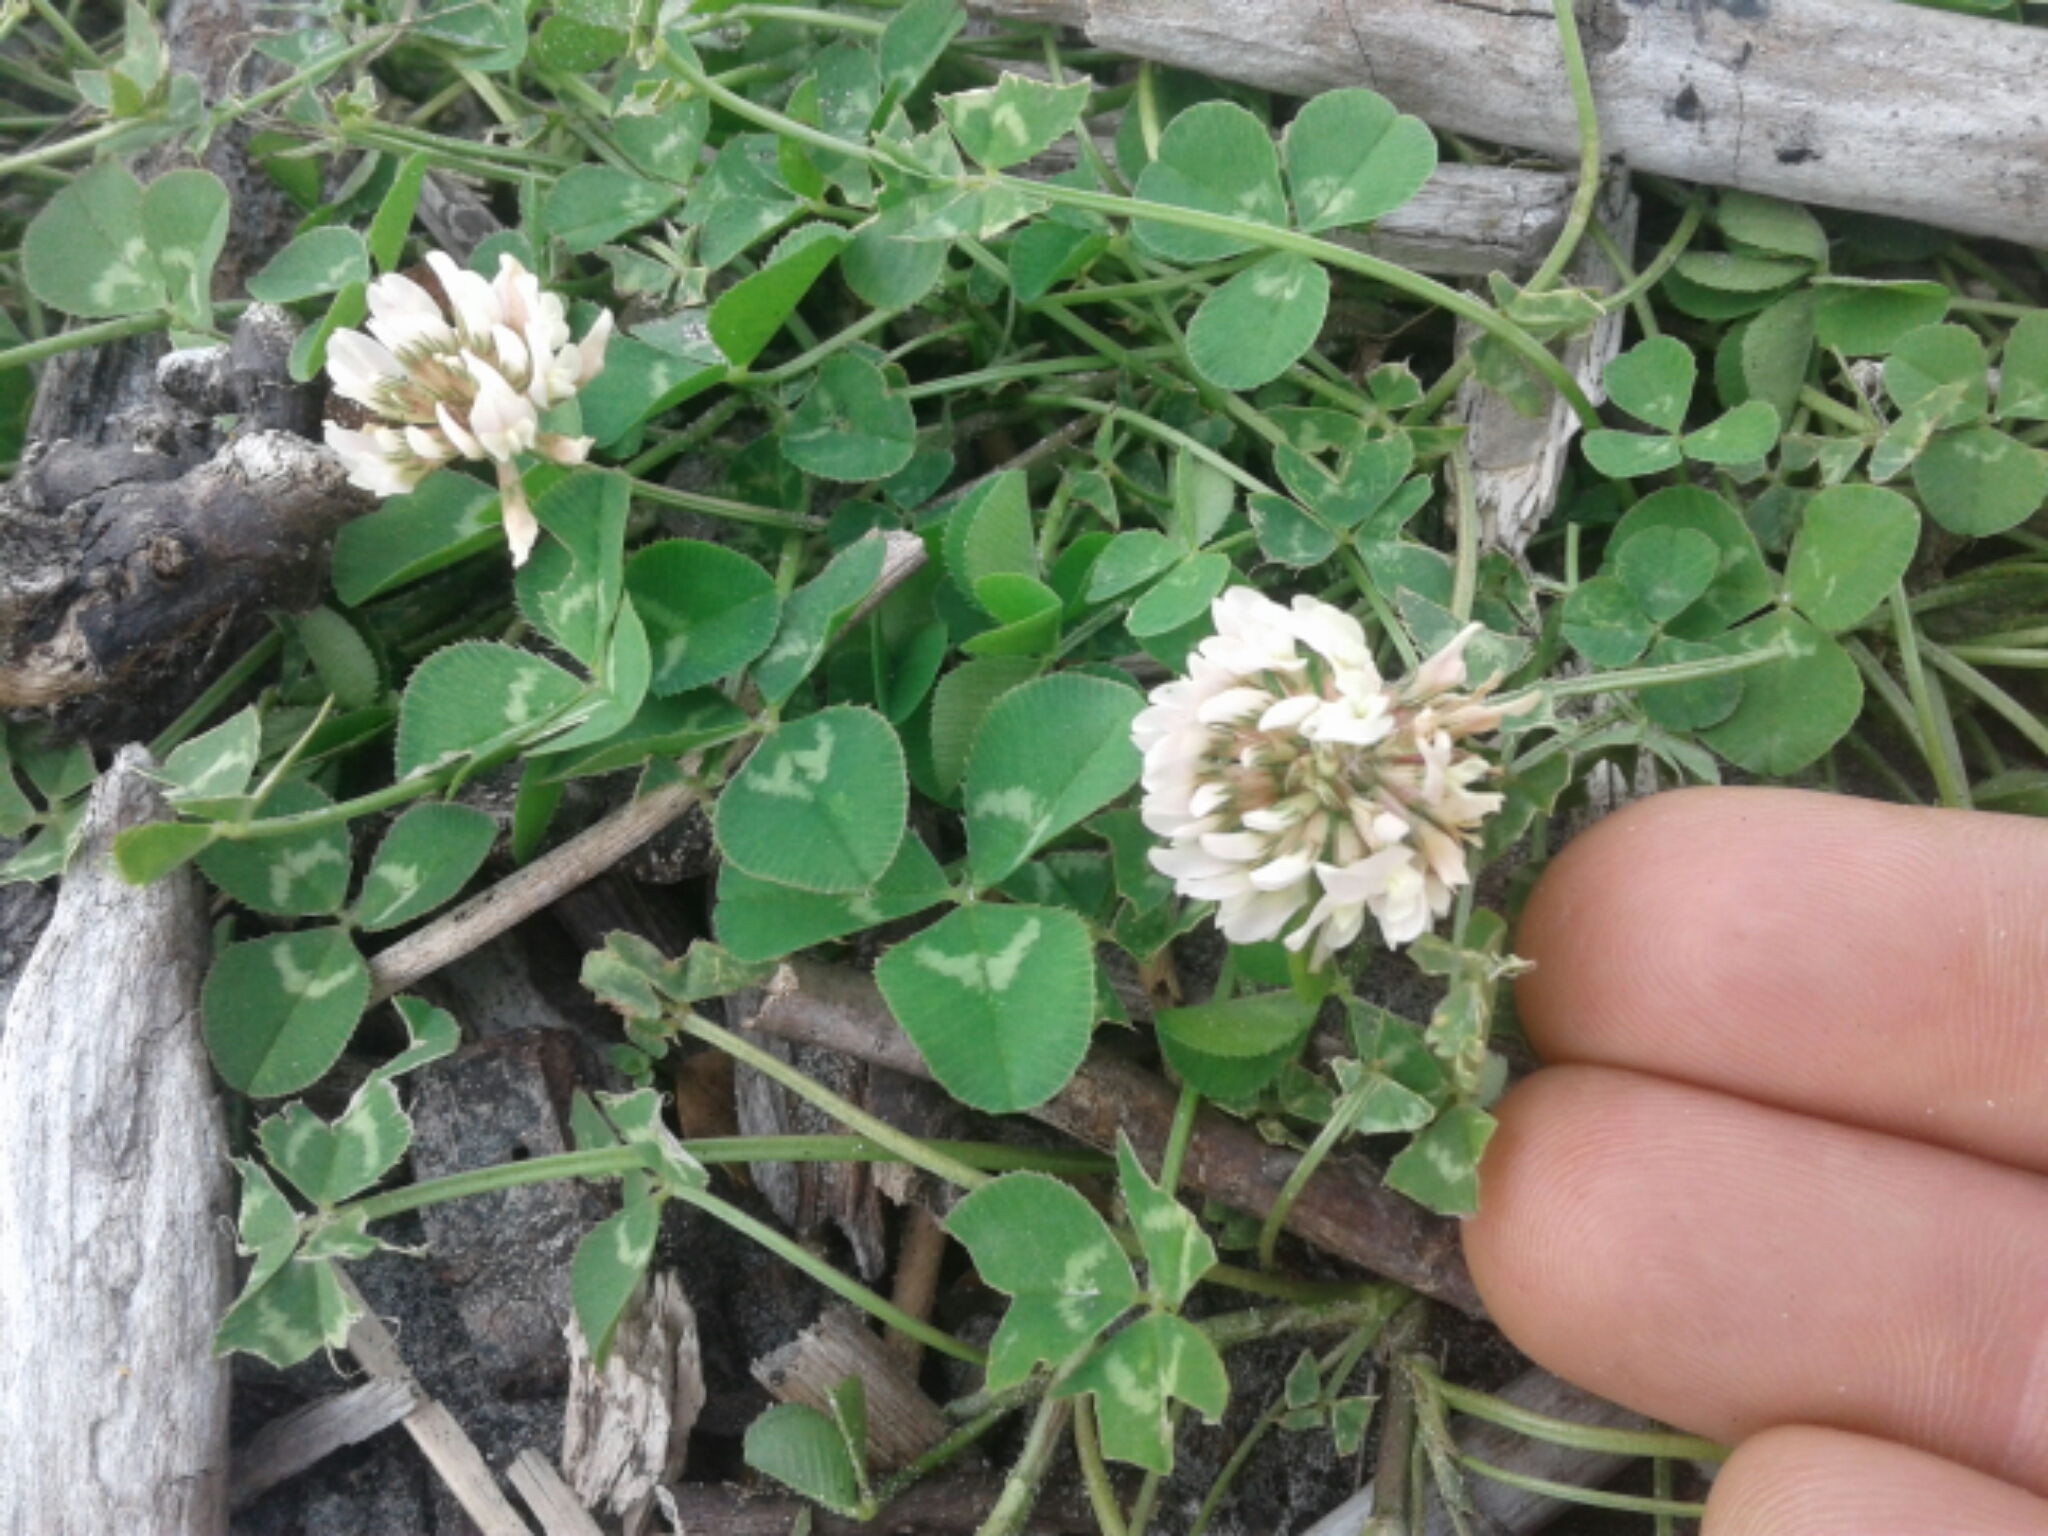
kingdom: Plantae
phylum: Tracheophyta
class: Magnoliopsida
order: Fabales
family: Fabaceae
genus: Trifolium
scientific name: Trifolium repens
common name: White clover
